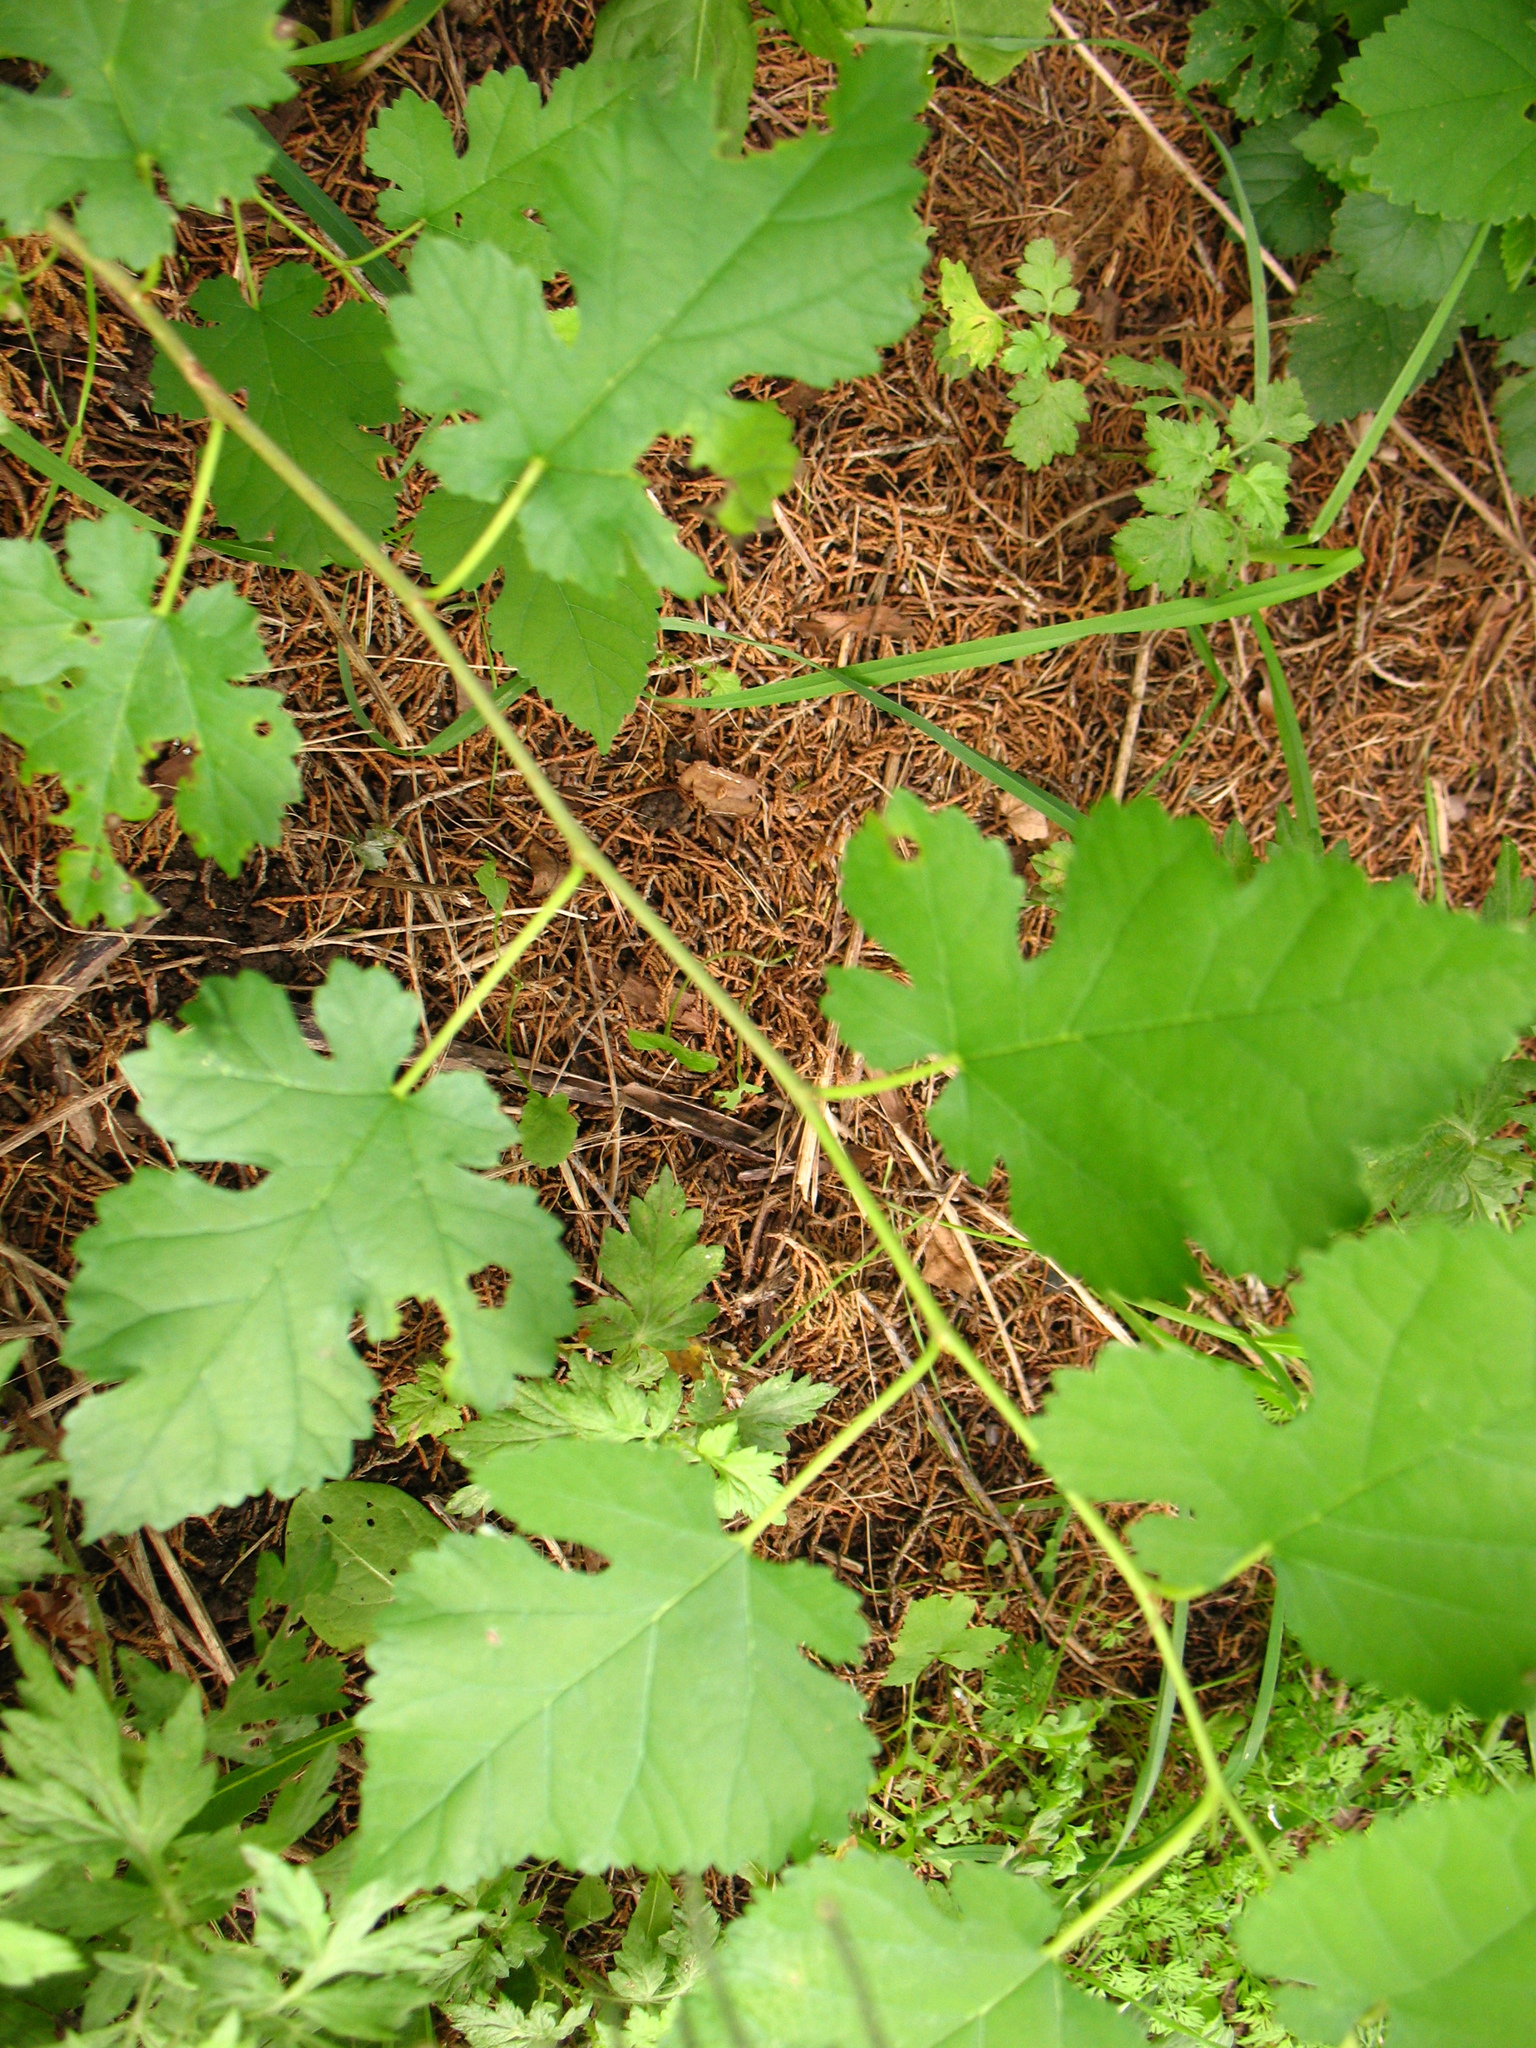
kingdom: Plantae
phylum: Tracheophyta
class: Magnoliopsida
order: Rosales
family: Moraceae
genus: Morus
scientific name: Morus alba
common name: White mulberry
